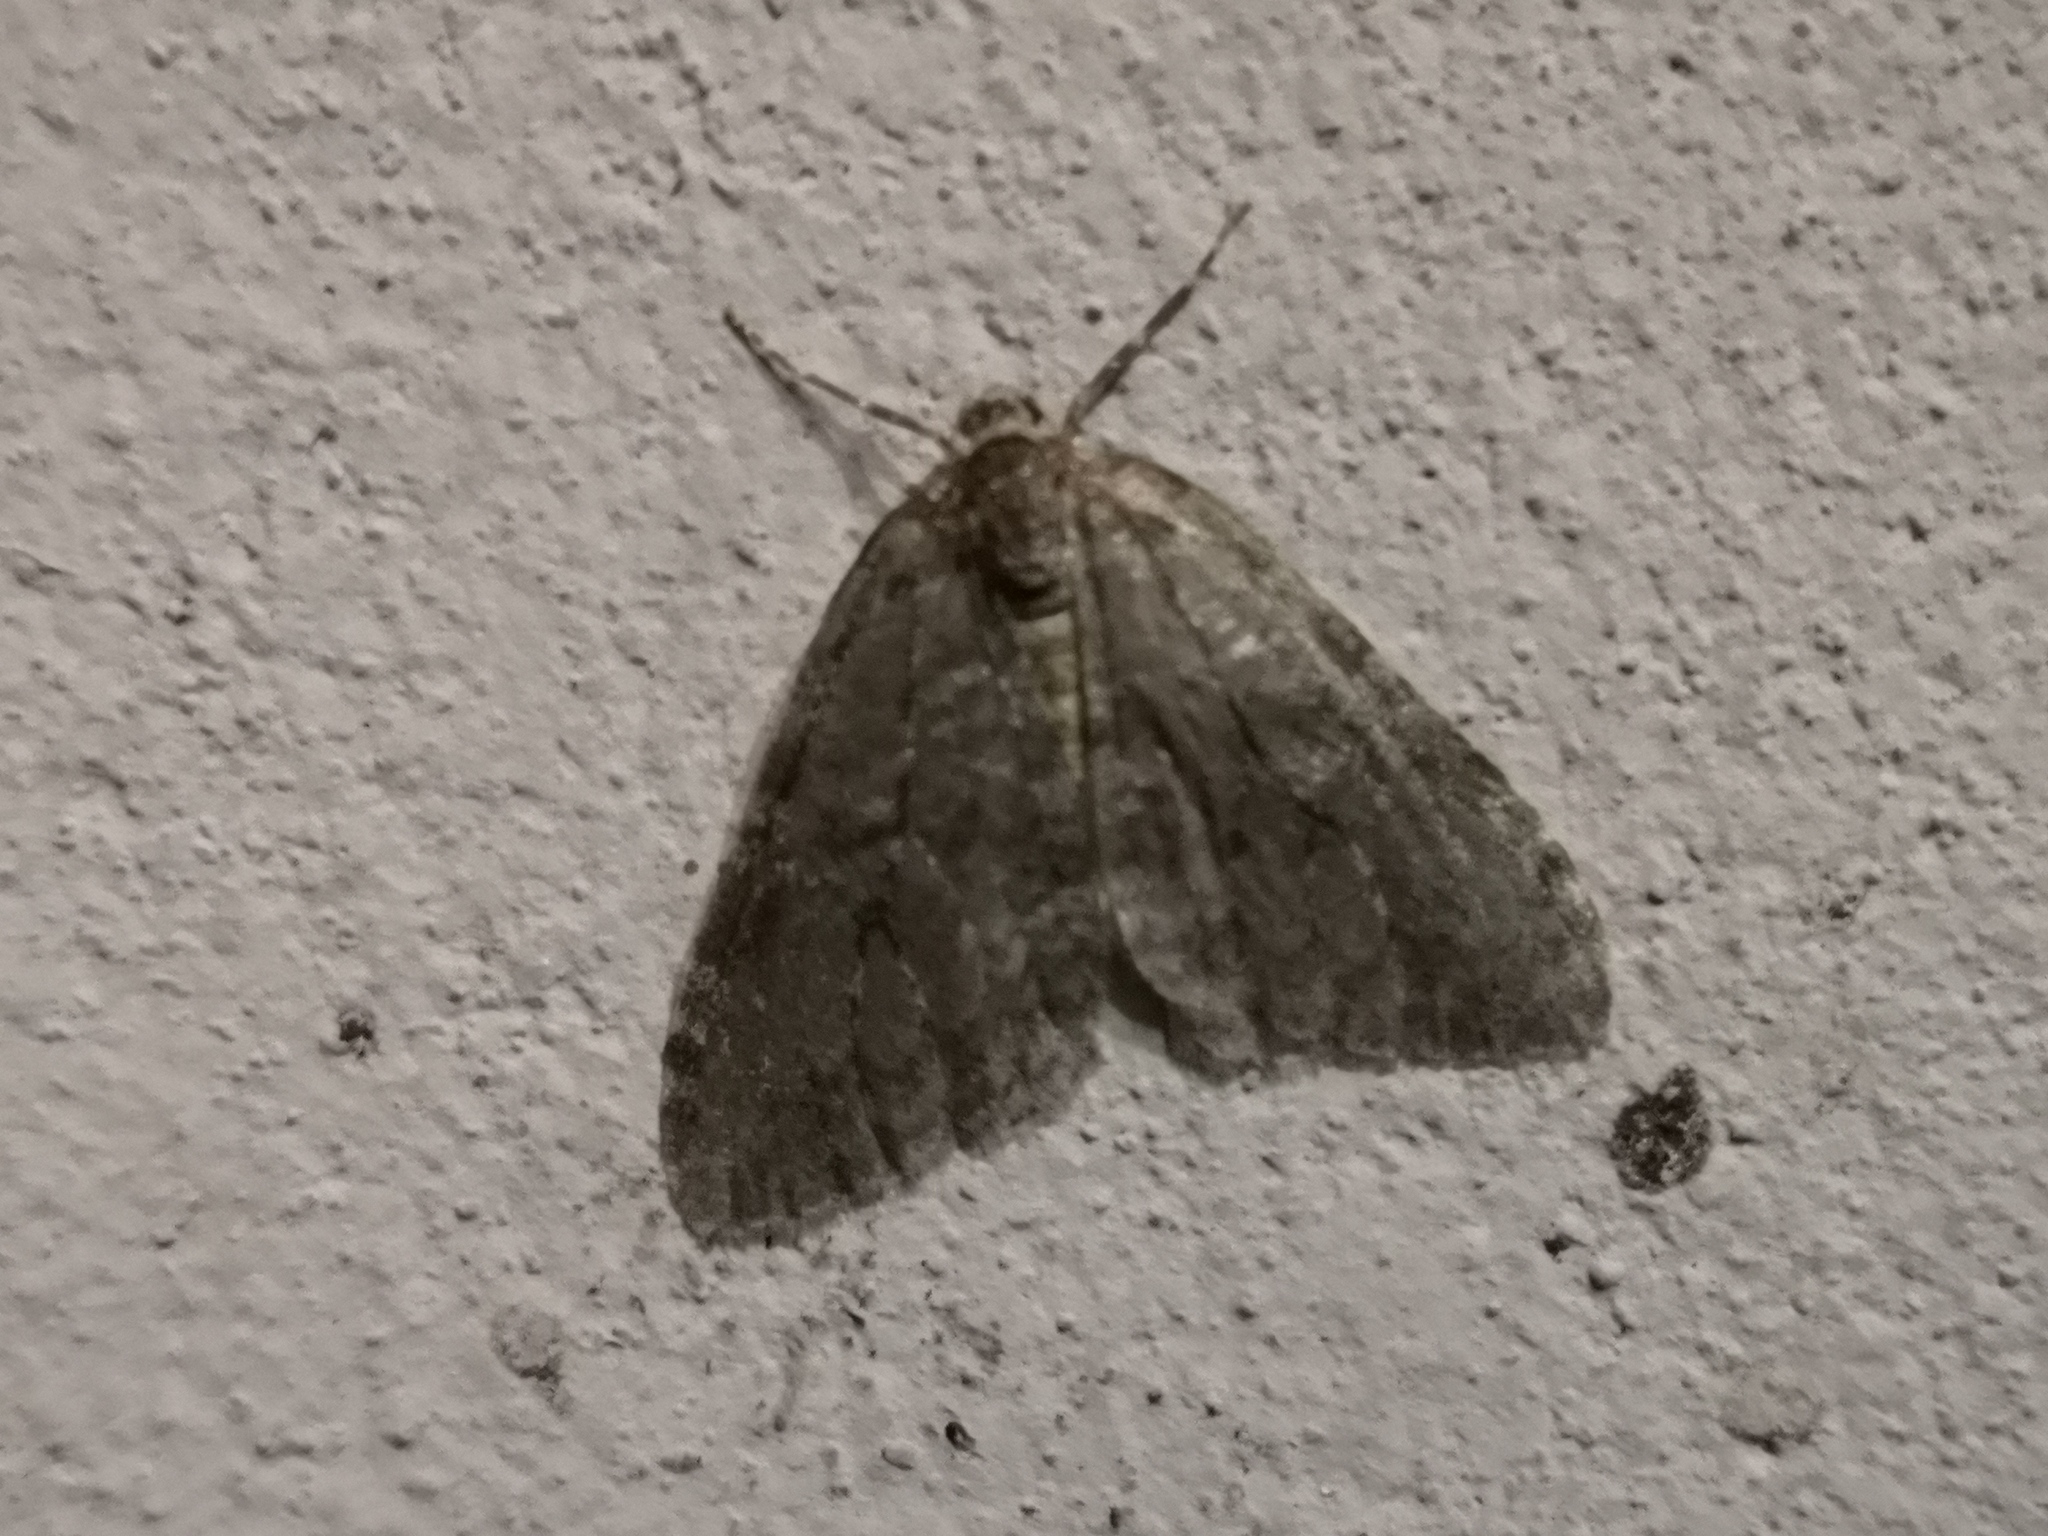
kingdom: Animalia
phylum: Arthropoda
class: Insecta
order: Lepidoptera
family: Geometridae
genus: Epirrita
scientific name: Epirrita dilutata
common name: November moth
